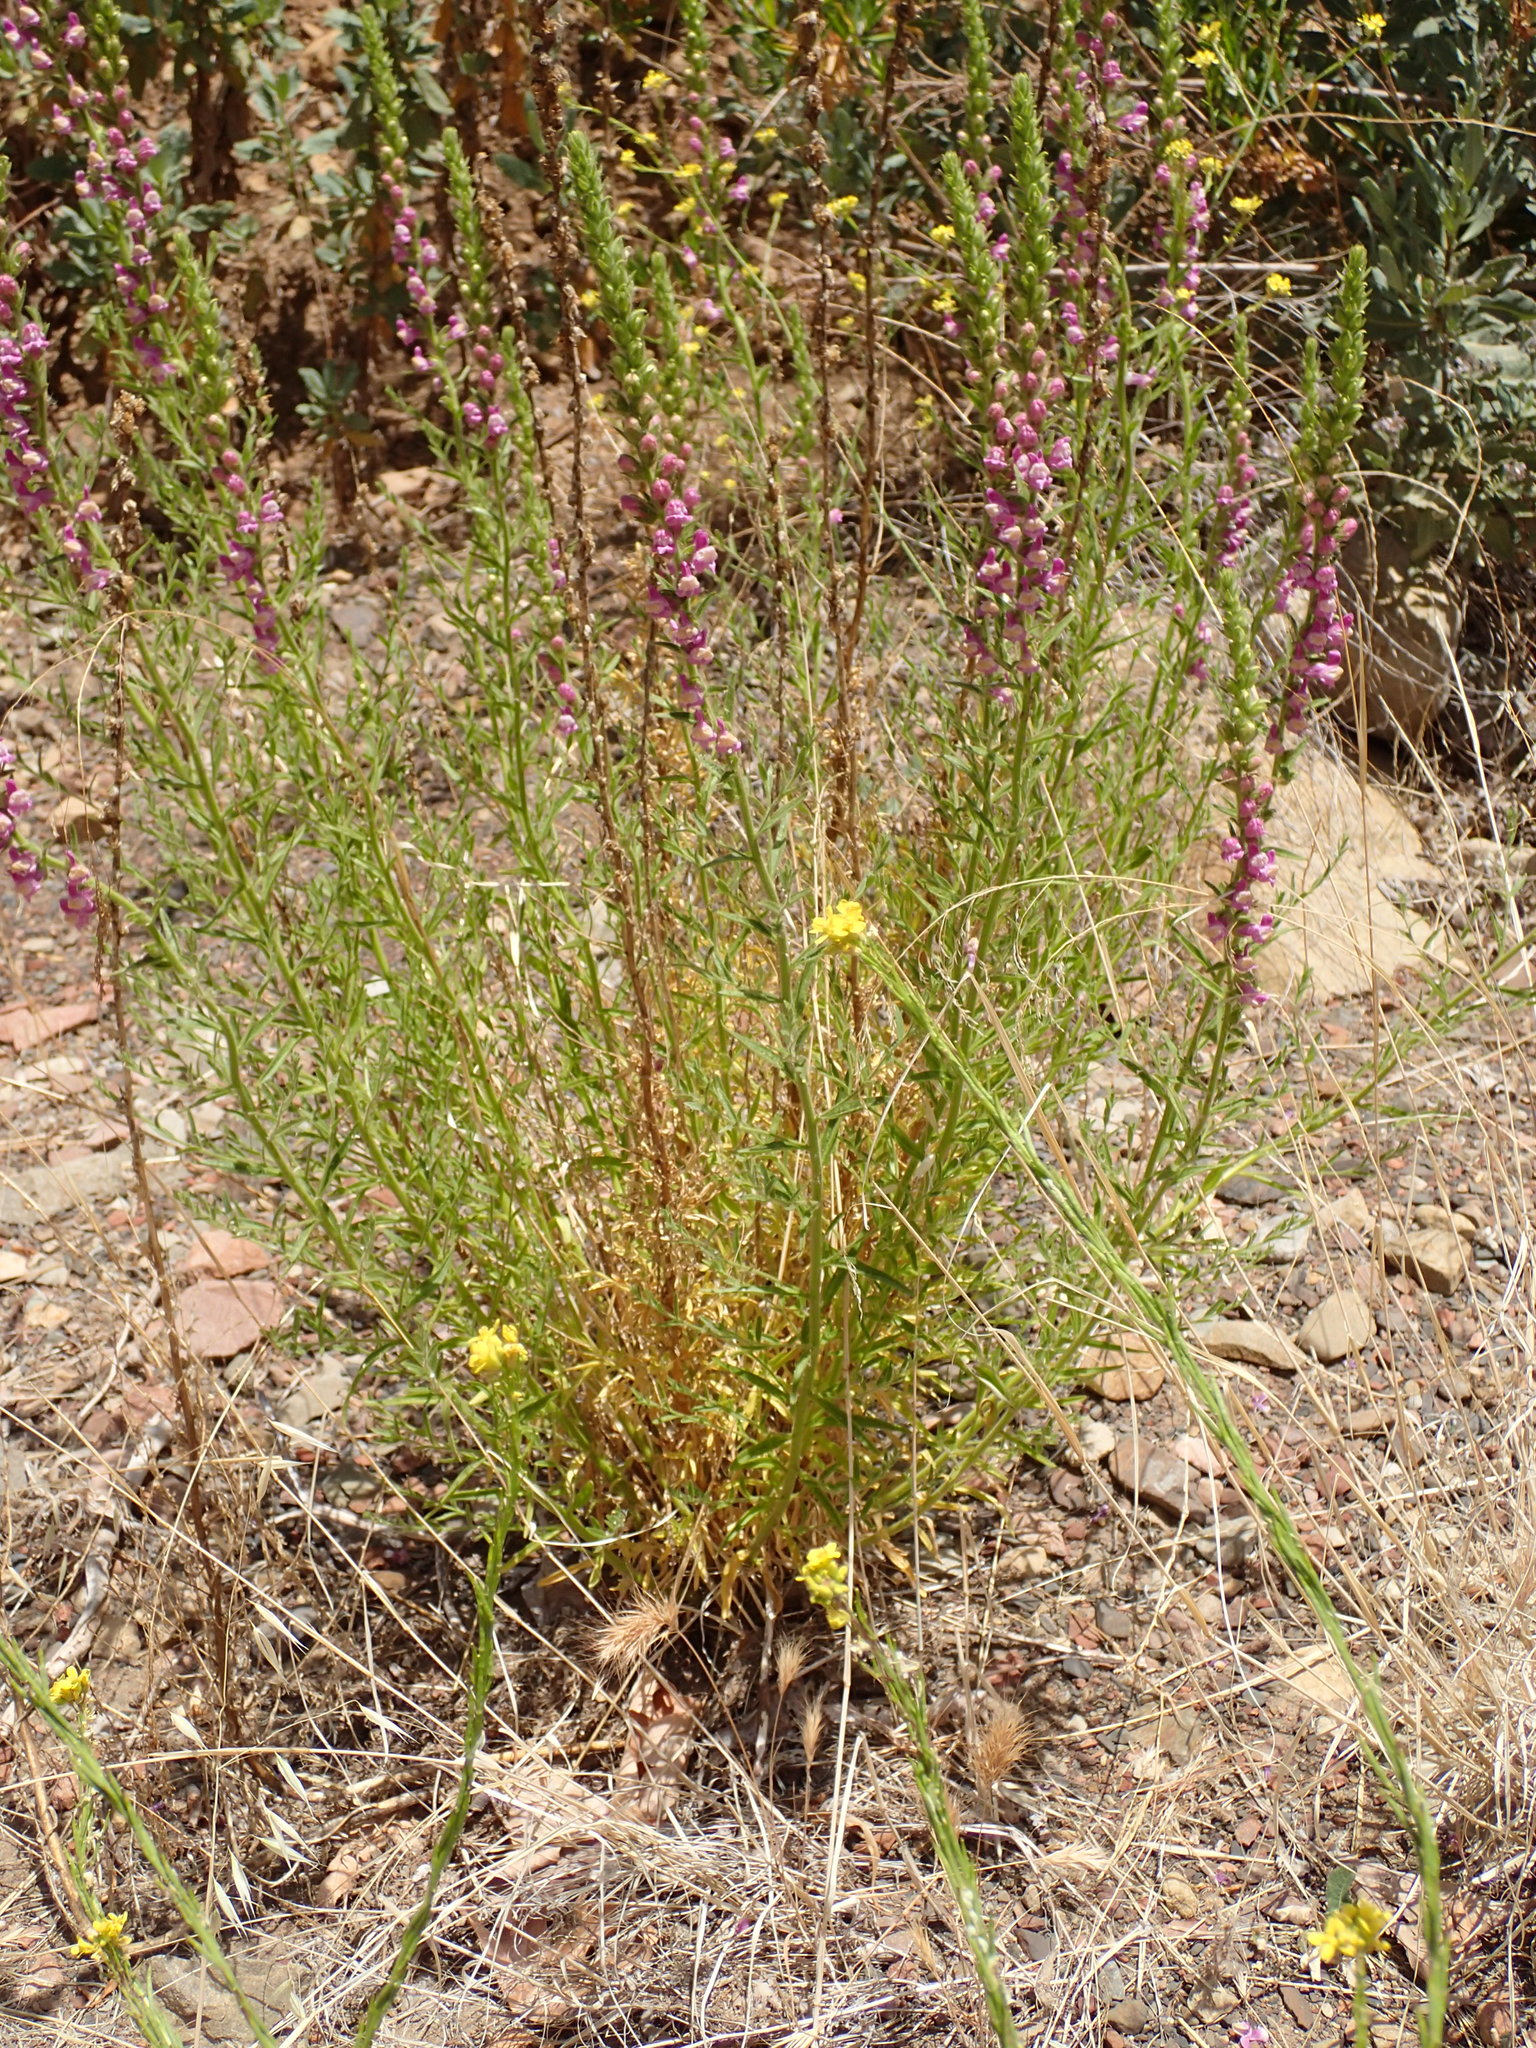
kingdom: Plantae
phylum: Tracheophyta
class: Magnoliopsida
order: Lamiales
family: Plantaginaceae
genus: Sairocarpus
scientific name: Sairocarpus multiflorus
